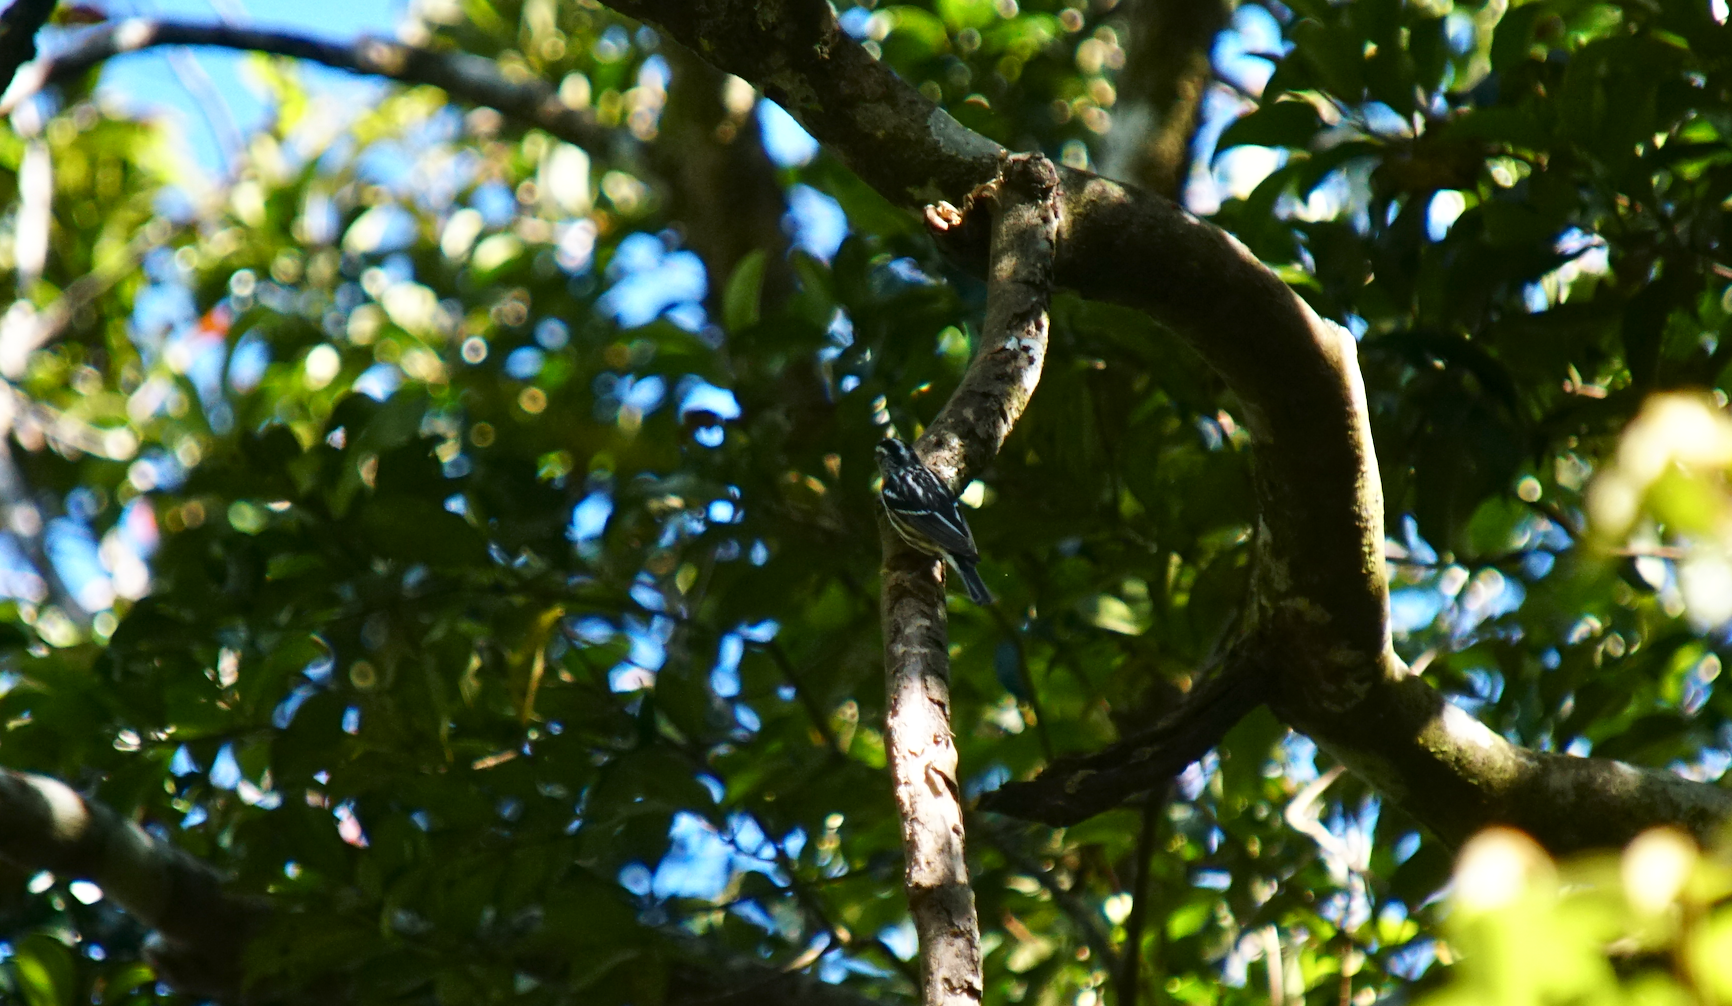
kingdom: Animalia
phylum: Chordata
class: Aves
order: Passeriformes
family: Parulidae
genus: Mniotilta
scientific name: Mniotilta varia
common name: Black-and-white warbler
